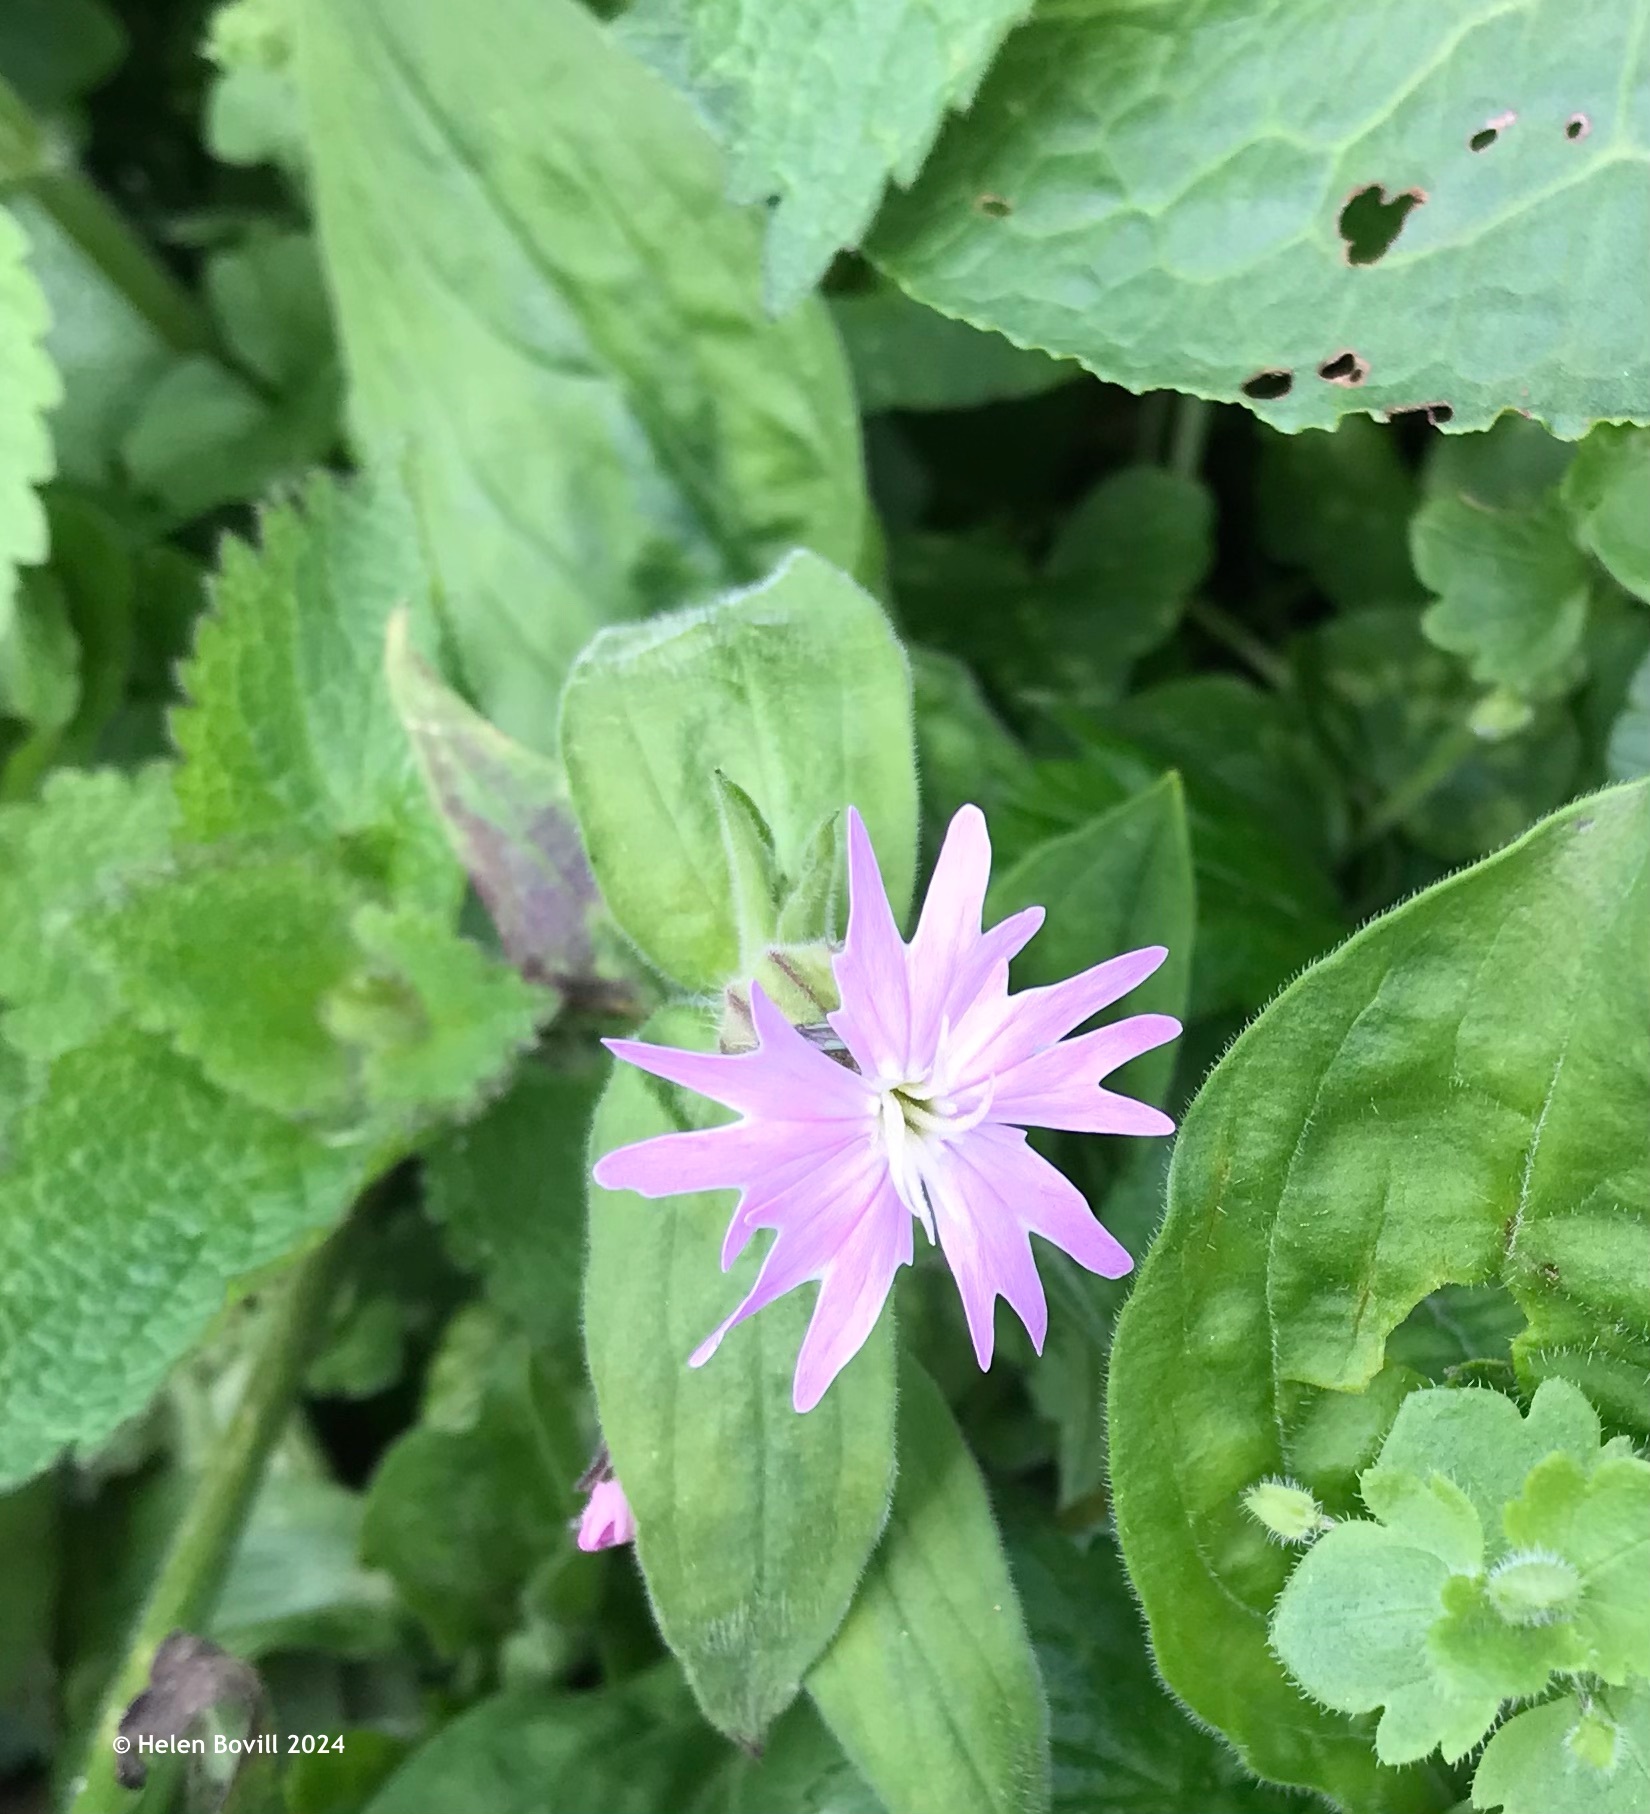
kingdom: Plantae
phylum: Tracheophyta
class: Magnoliopsida
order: Caryophyllales
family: Caryophyllaceae
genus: Silene
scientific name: Silene dioica
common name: Red campion
